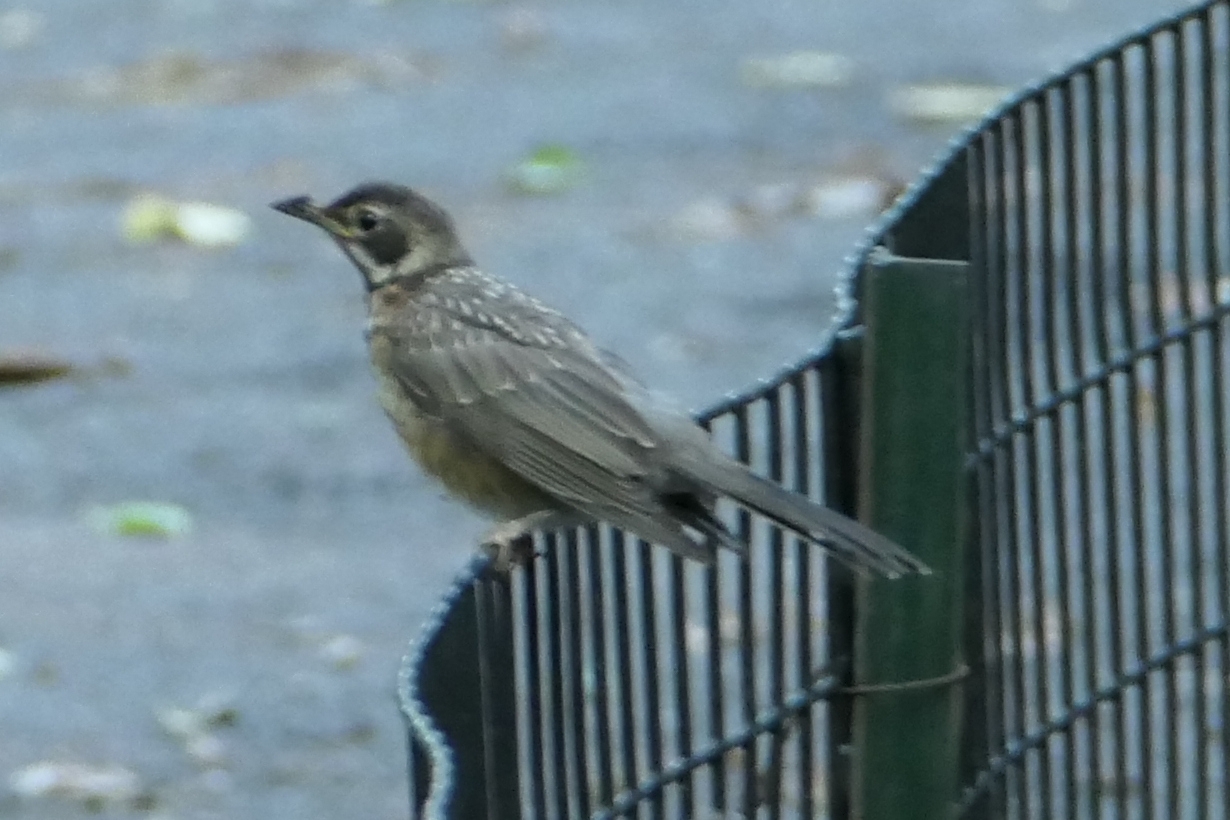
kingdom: Animalia
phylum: Chordata
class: Aves
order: Passeriformes
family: Turdidae
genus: Turdus
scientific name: Turdus migratorius
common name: American robin
